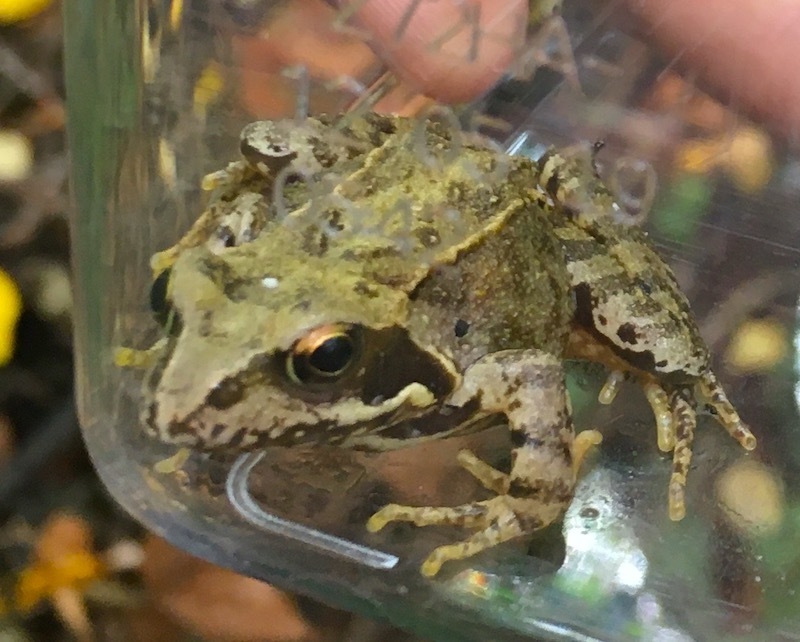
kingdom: Animalia
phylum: Chordata
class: Amphibia
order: Anura
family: Ranidae
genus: Rana
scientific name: Rana temporaria
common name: Common frog
